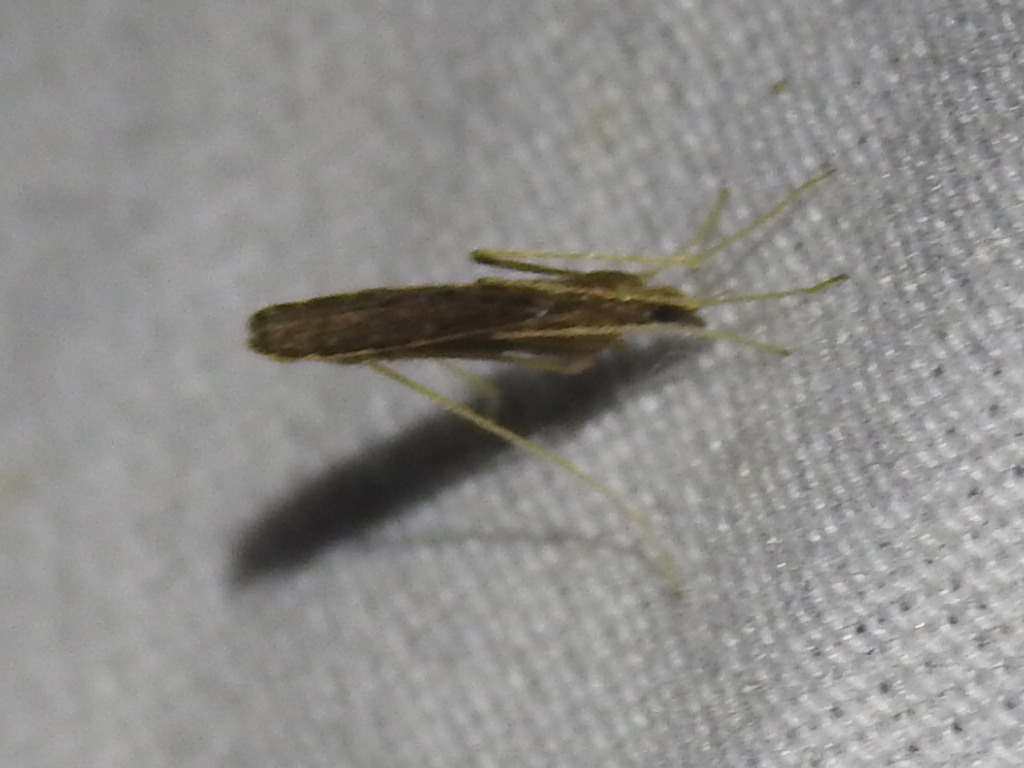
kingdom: Animalia
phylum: Arthropoda
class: Insecta
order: Diptera
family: Limoniidae
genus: Erioptera
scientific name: Erioptera tantilla
